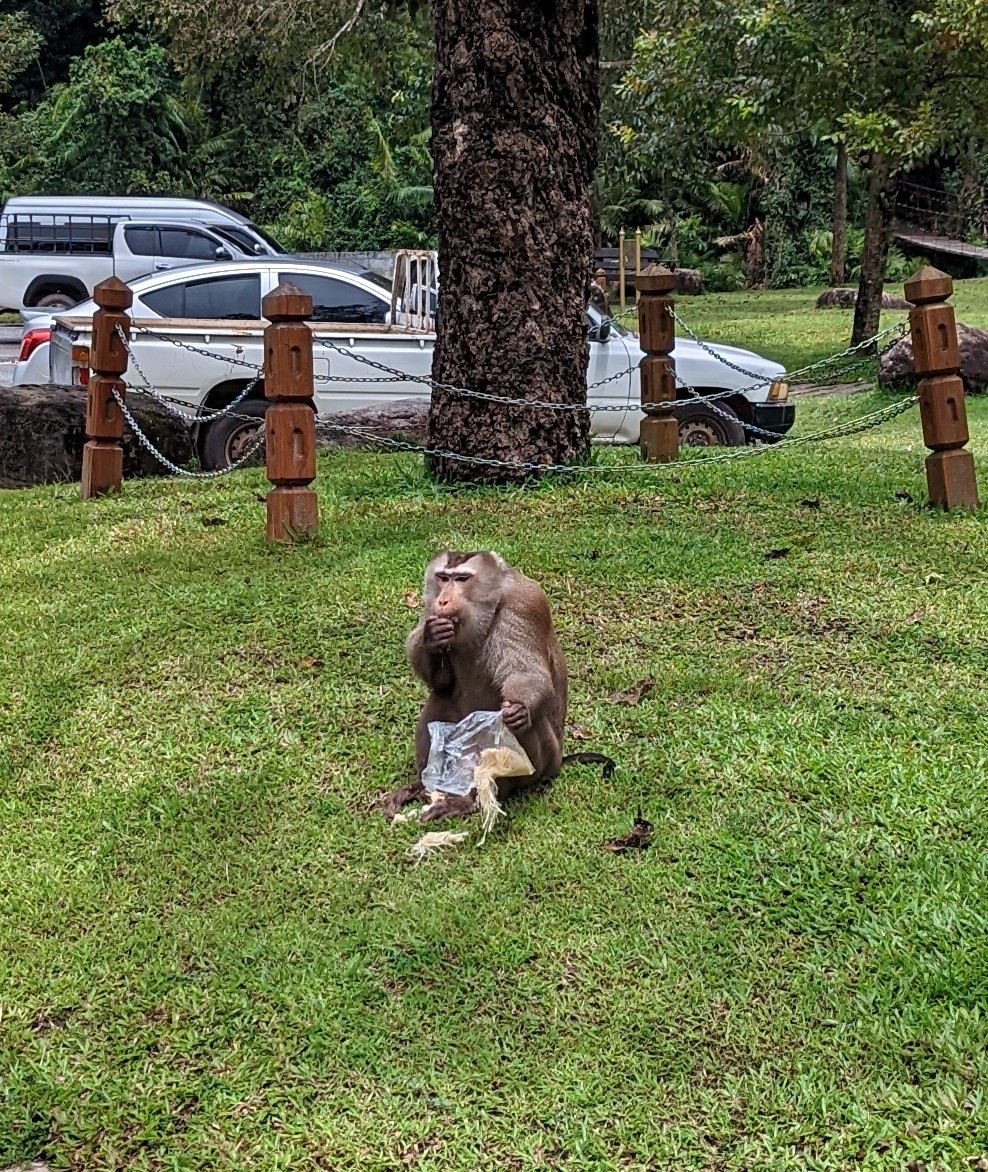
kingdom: Animalia
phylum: Chordata
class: Mammalia
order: Primates
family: Cercopithecidae
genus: Macaca
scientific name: Macaca leonina
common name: Northern pig-tailed macaque
